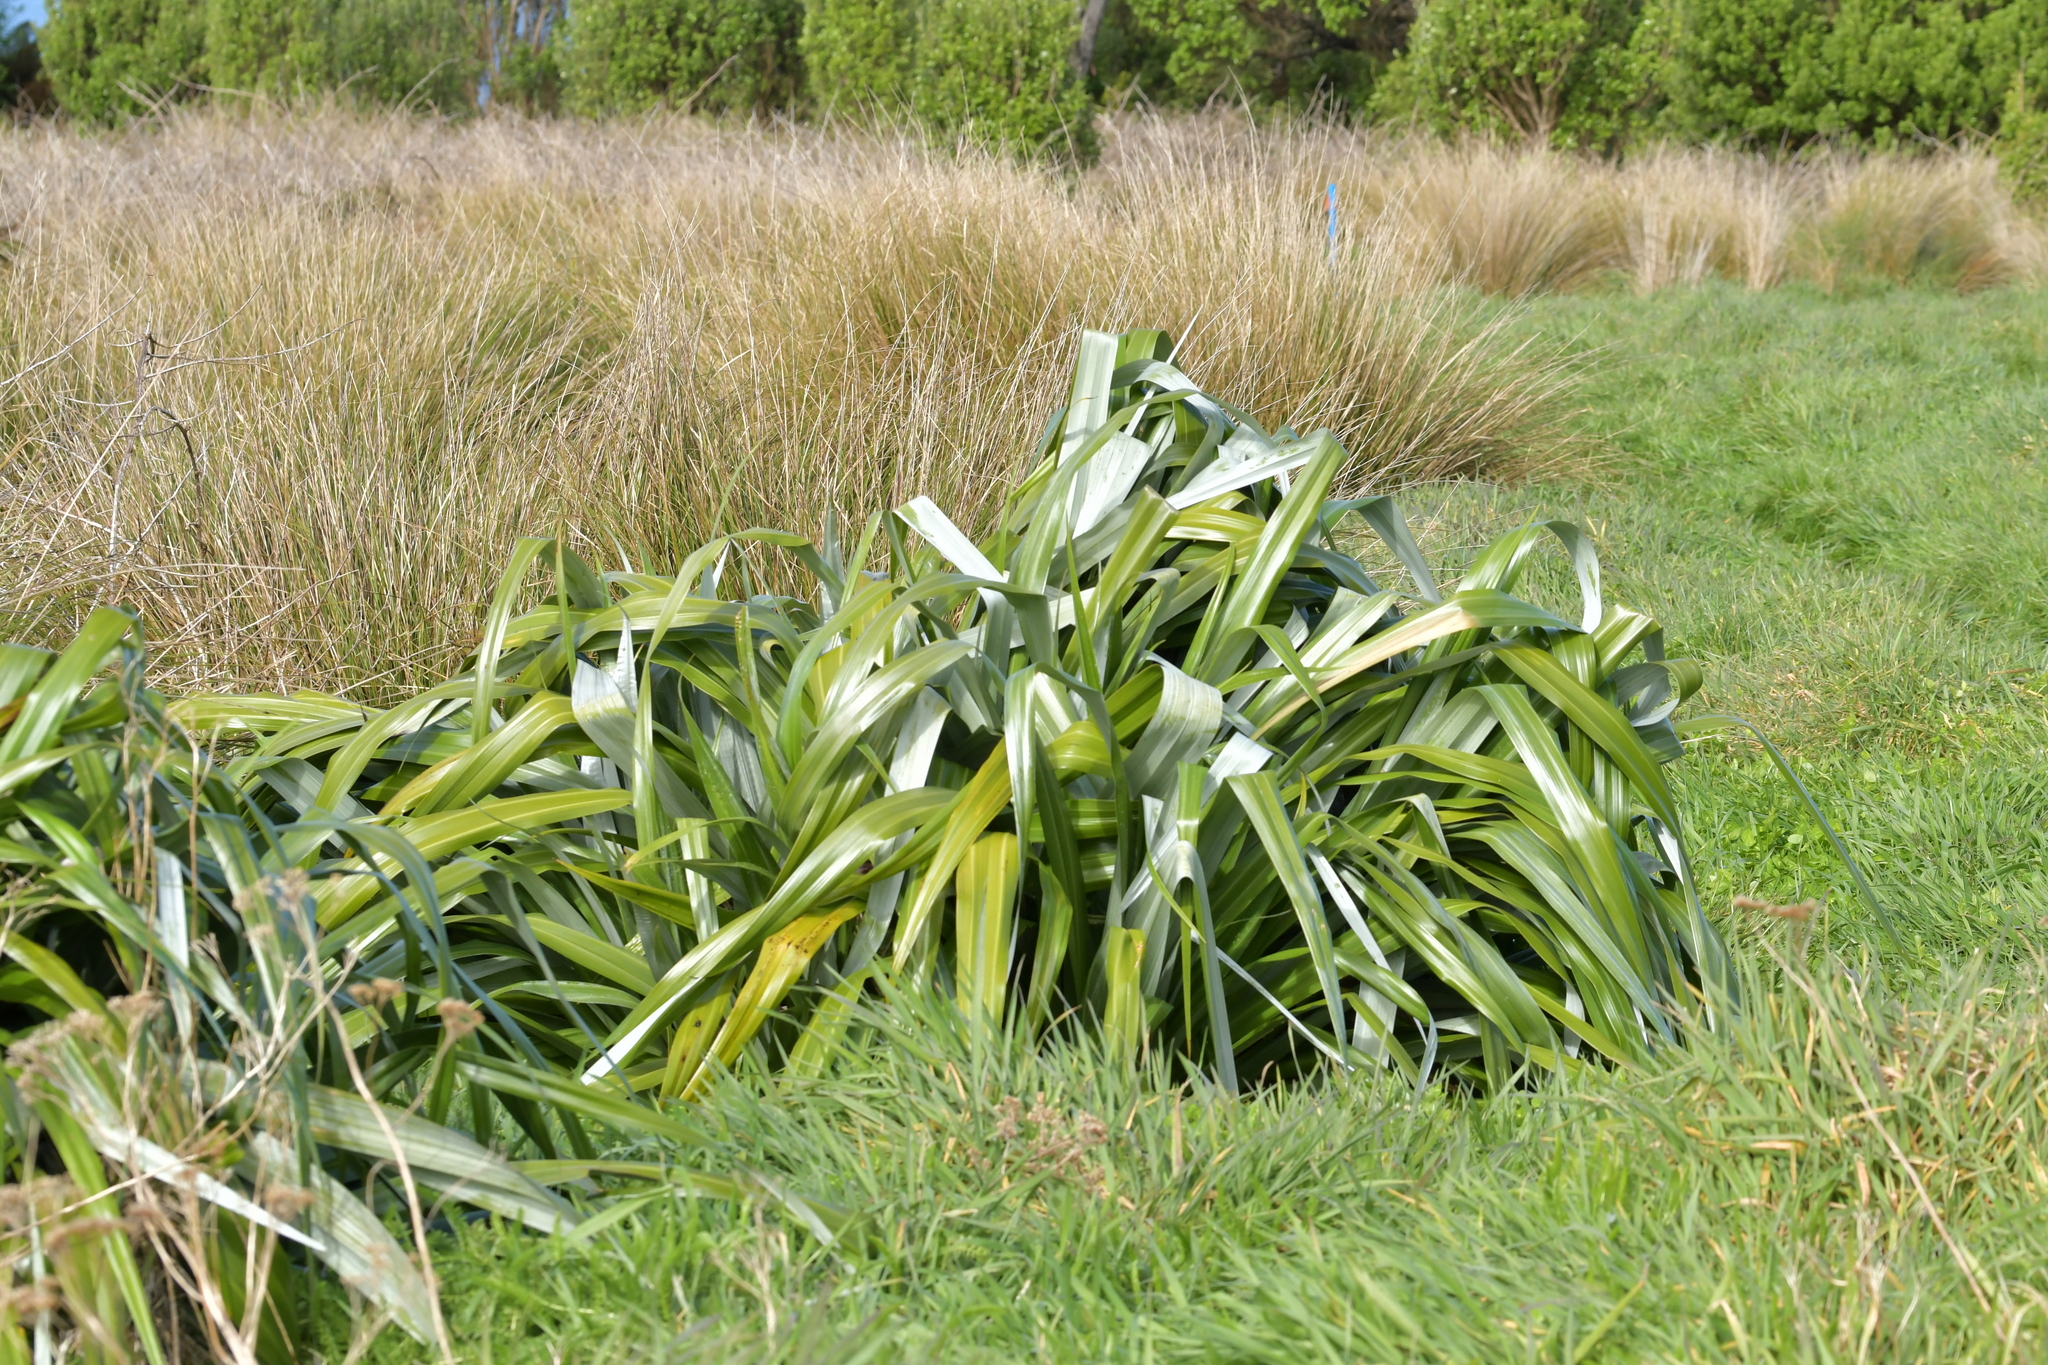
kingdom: Plantae
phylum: Tracheophyta
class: Liliopsida
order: Asparagales
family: Asteliaceae
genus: Astelia
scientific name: Astelia chathamica
